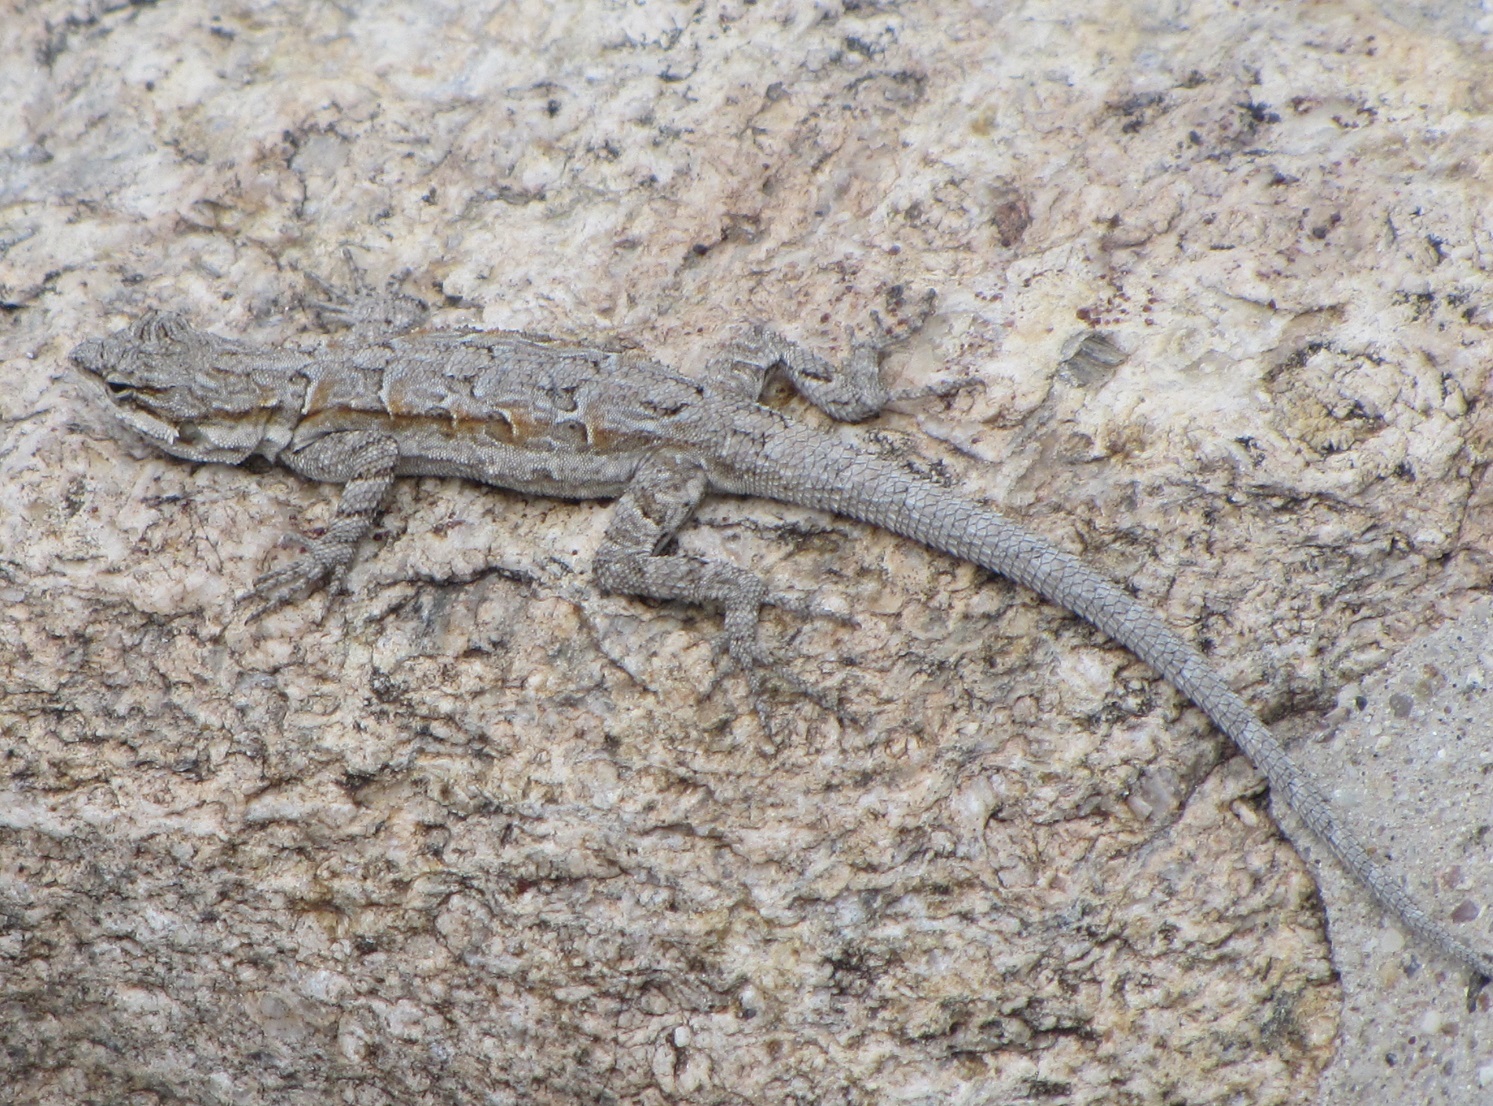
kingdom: Animalia
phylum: Chordata
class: Squamata
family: Phrynosomatidae
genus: Urosaurus
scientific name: Urosaurus ornatus
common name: Ornate tree lizard
